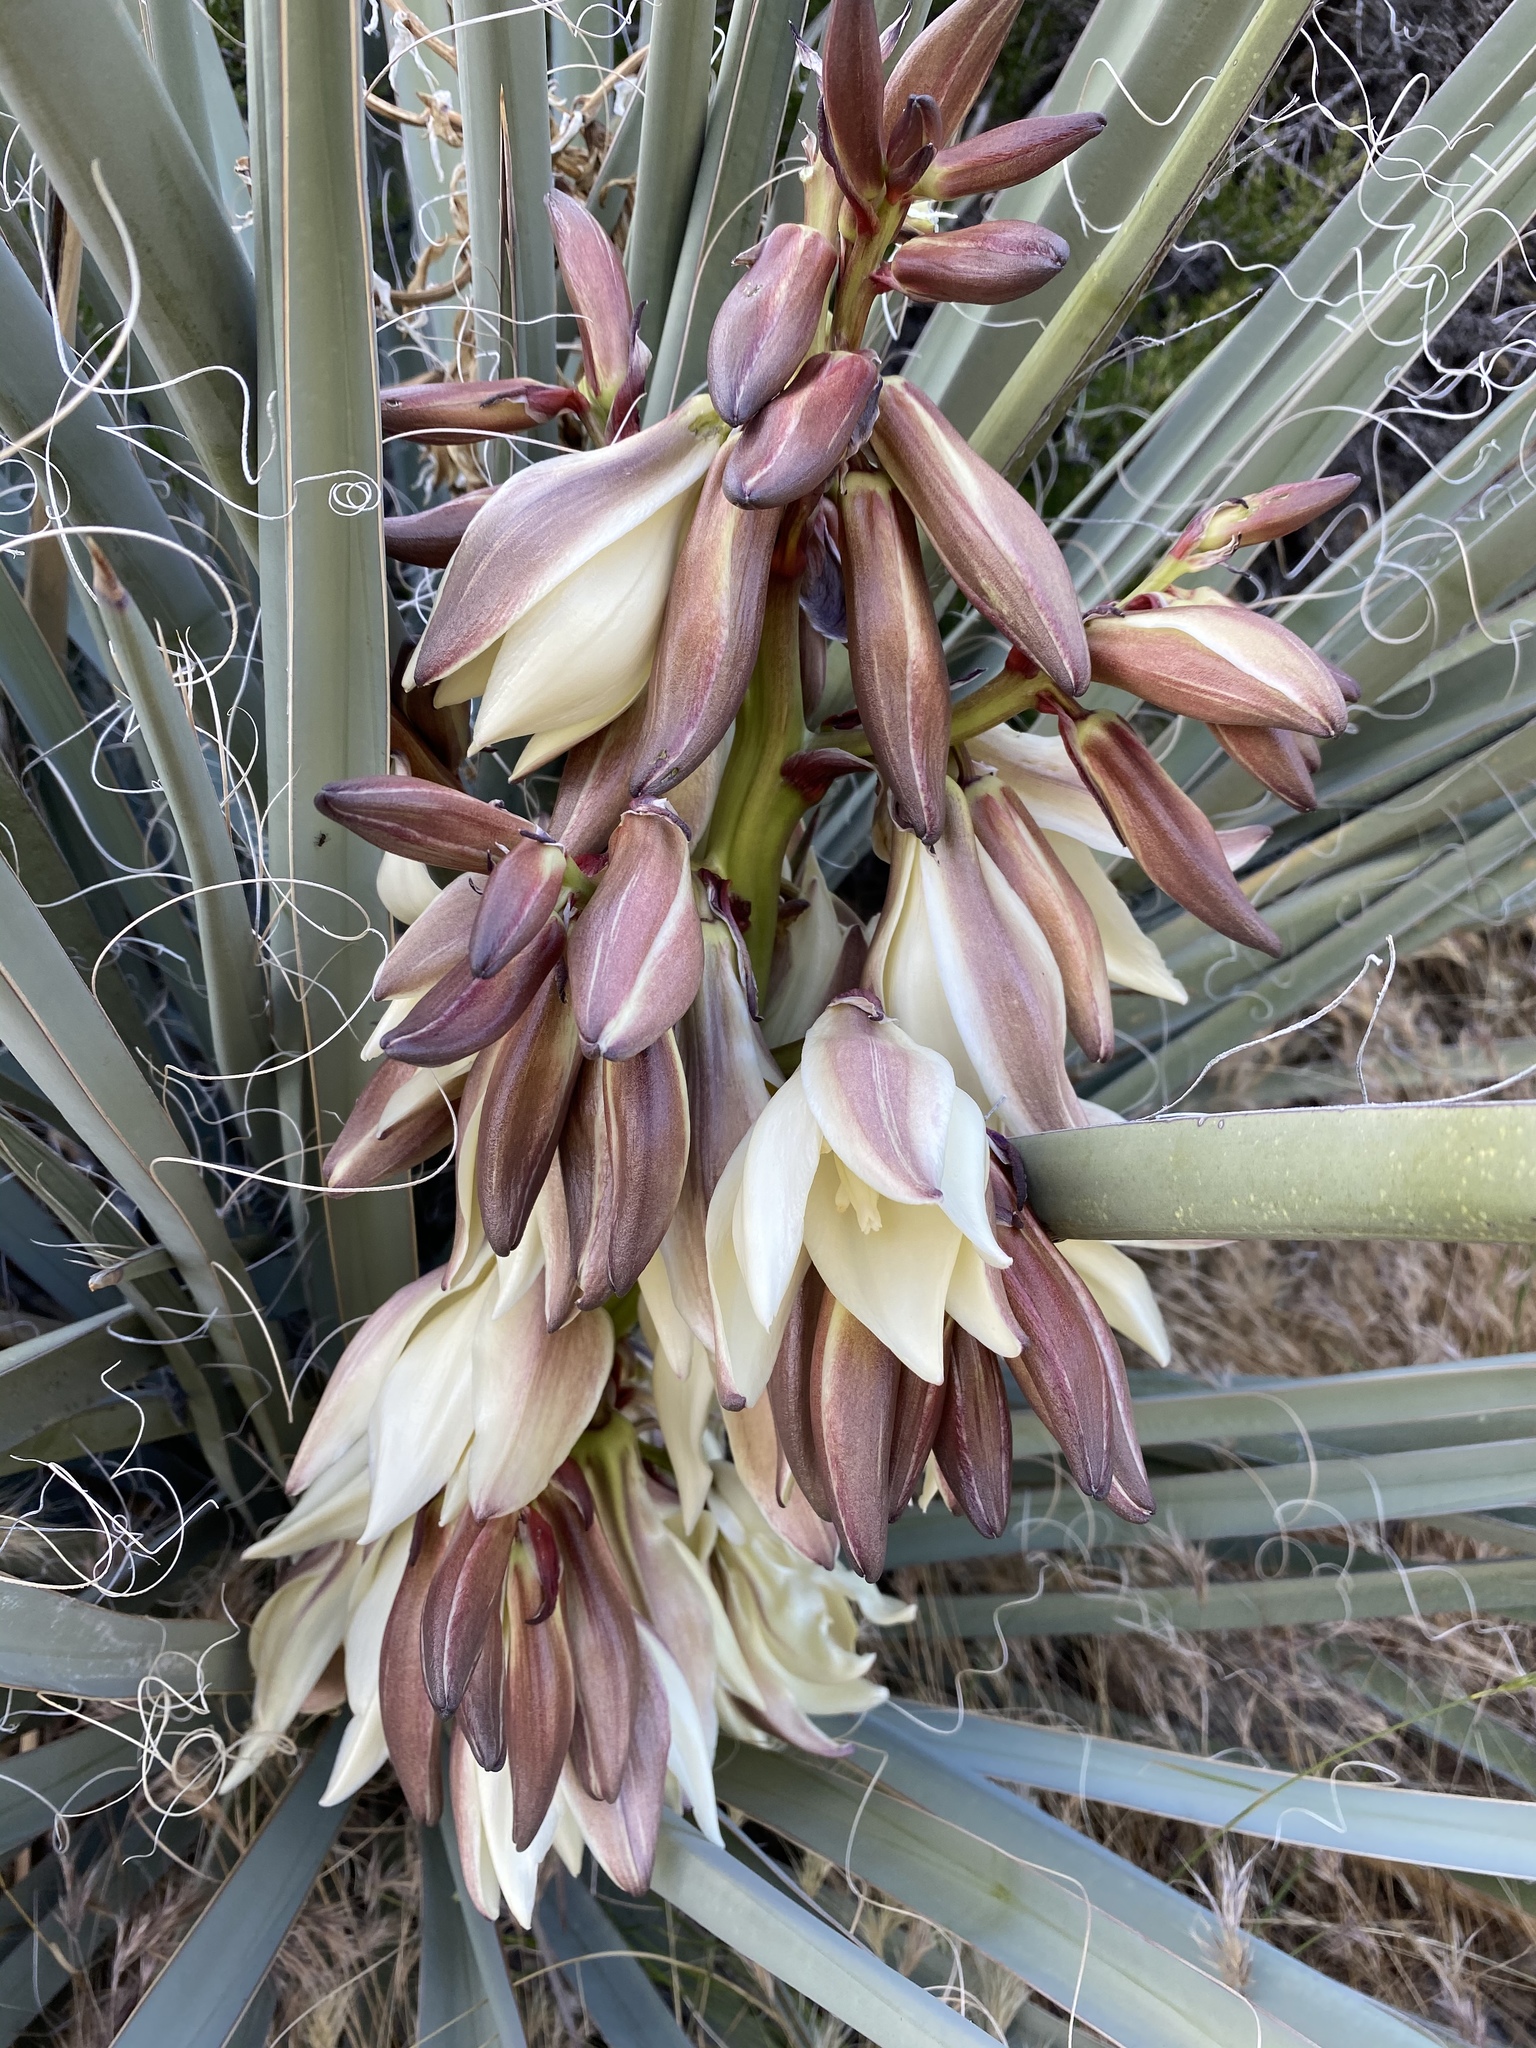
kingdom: Plantae
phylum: Tracheophyta
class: Liliopsida
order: Asparagales
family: Asparagaceae
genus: Yucca
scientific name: Yucca baccata
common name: Banana yucca
